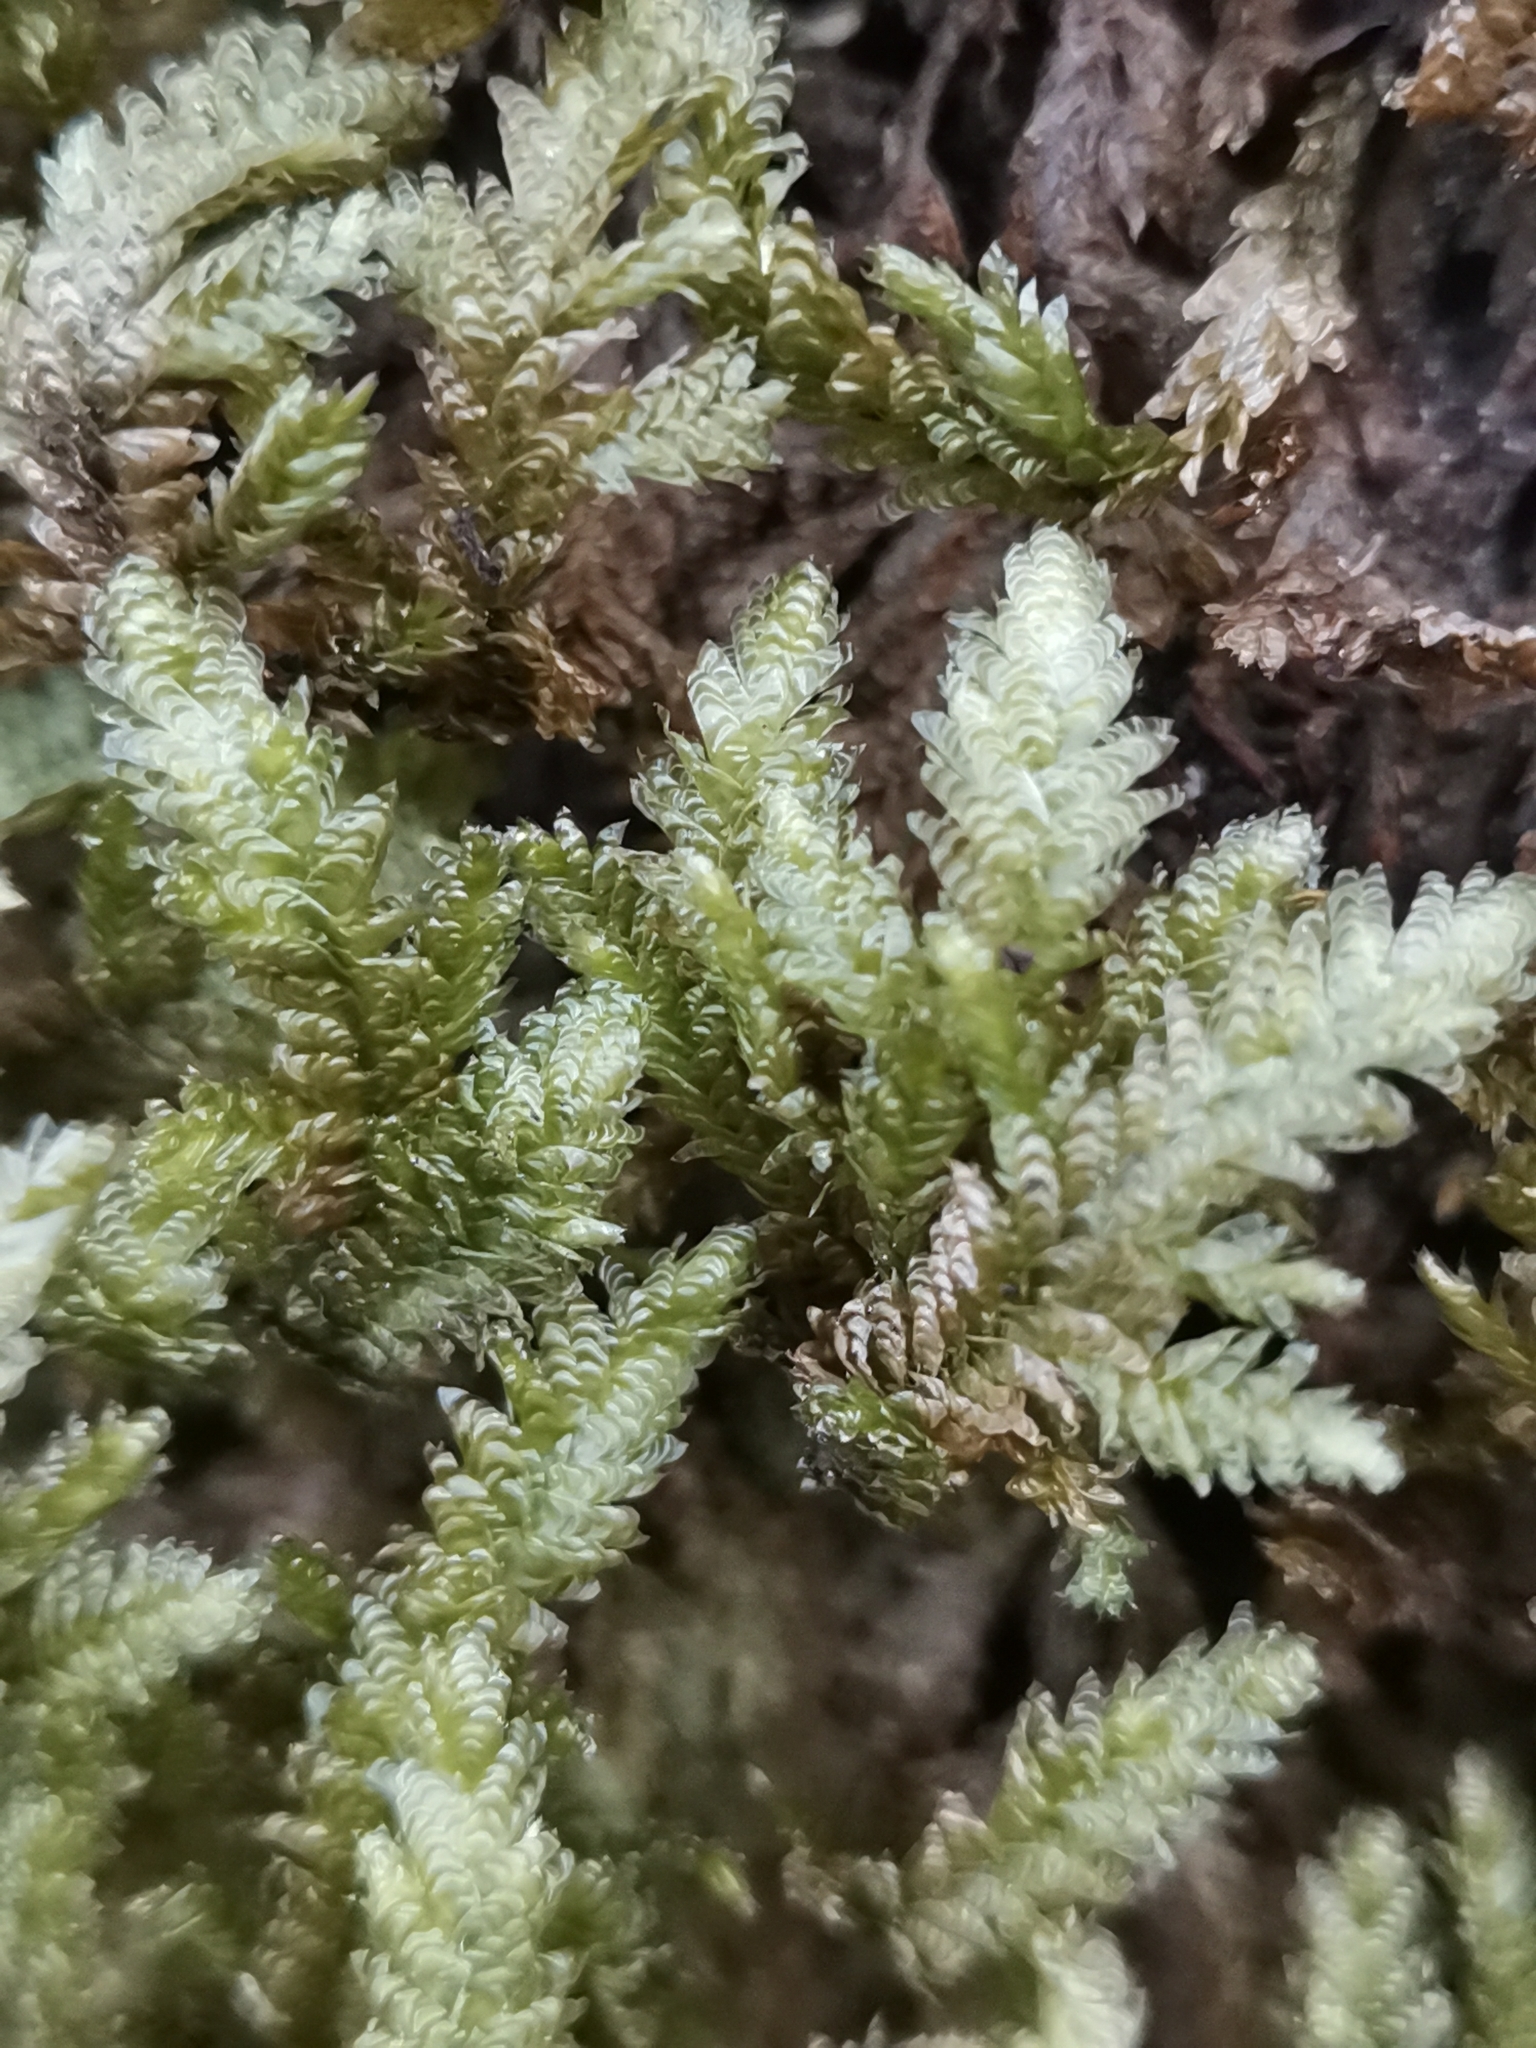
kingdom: Plantae
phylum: Bryophyta
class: Bryopsida
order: Hypnales
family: Neckeraceae
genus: Exsertotheca
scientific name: Exsertotheca crispa
